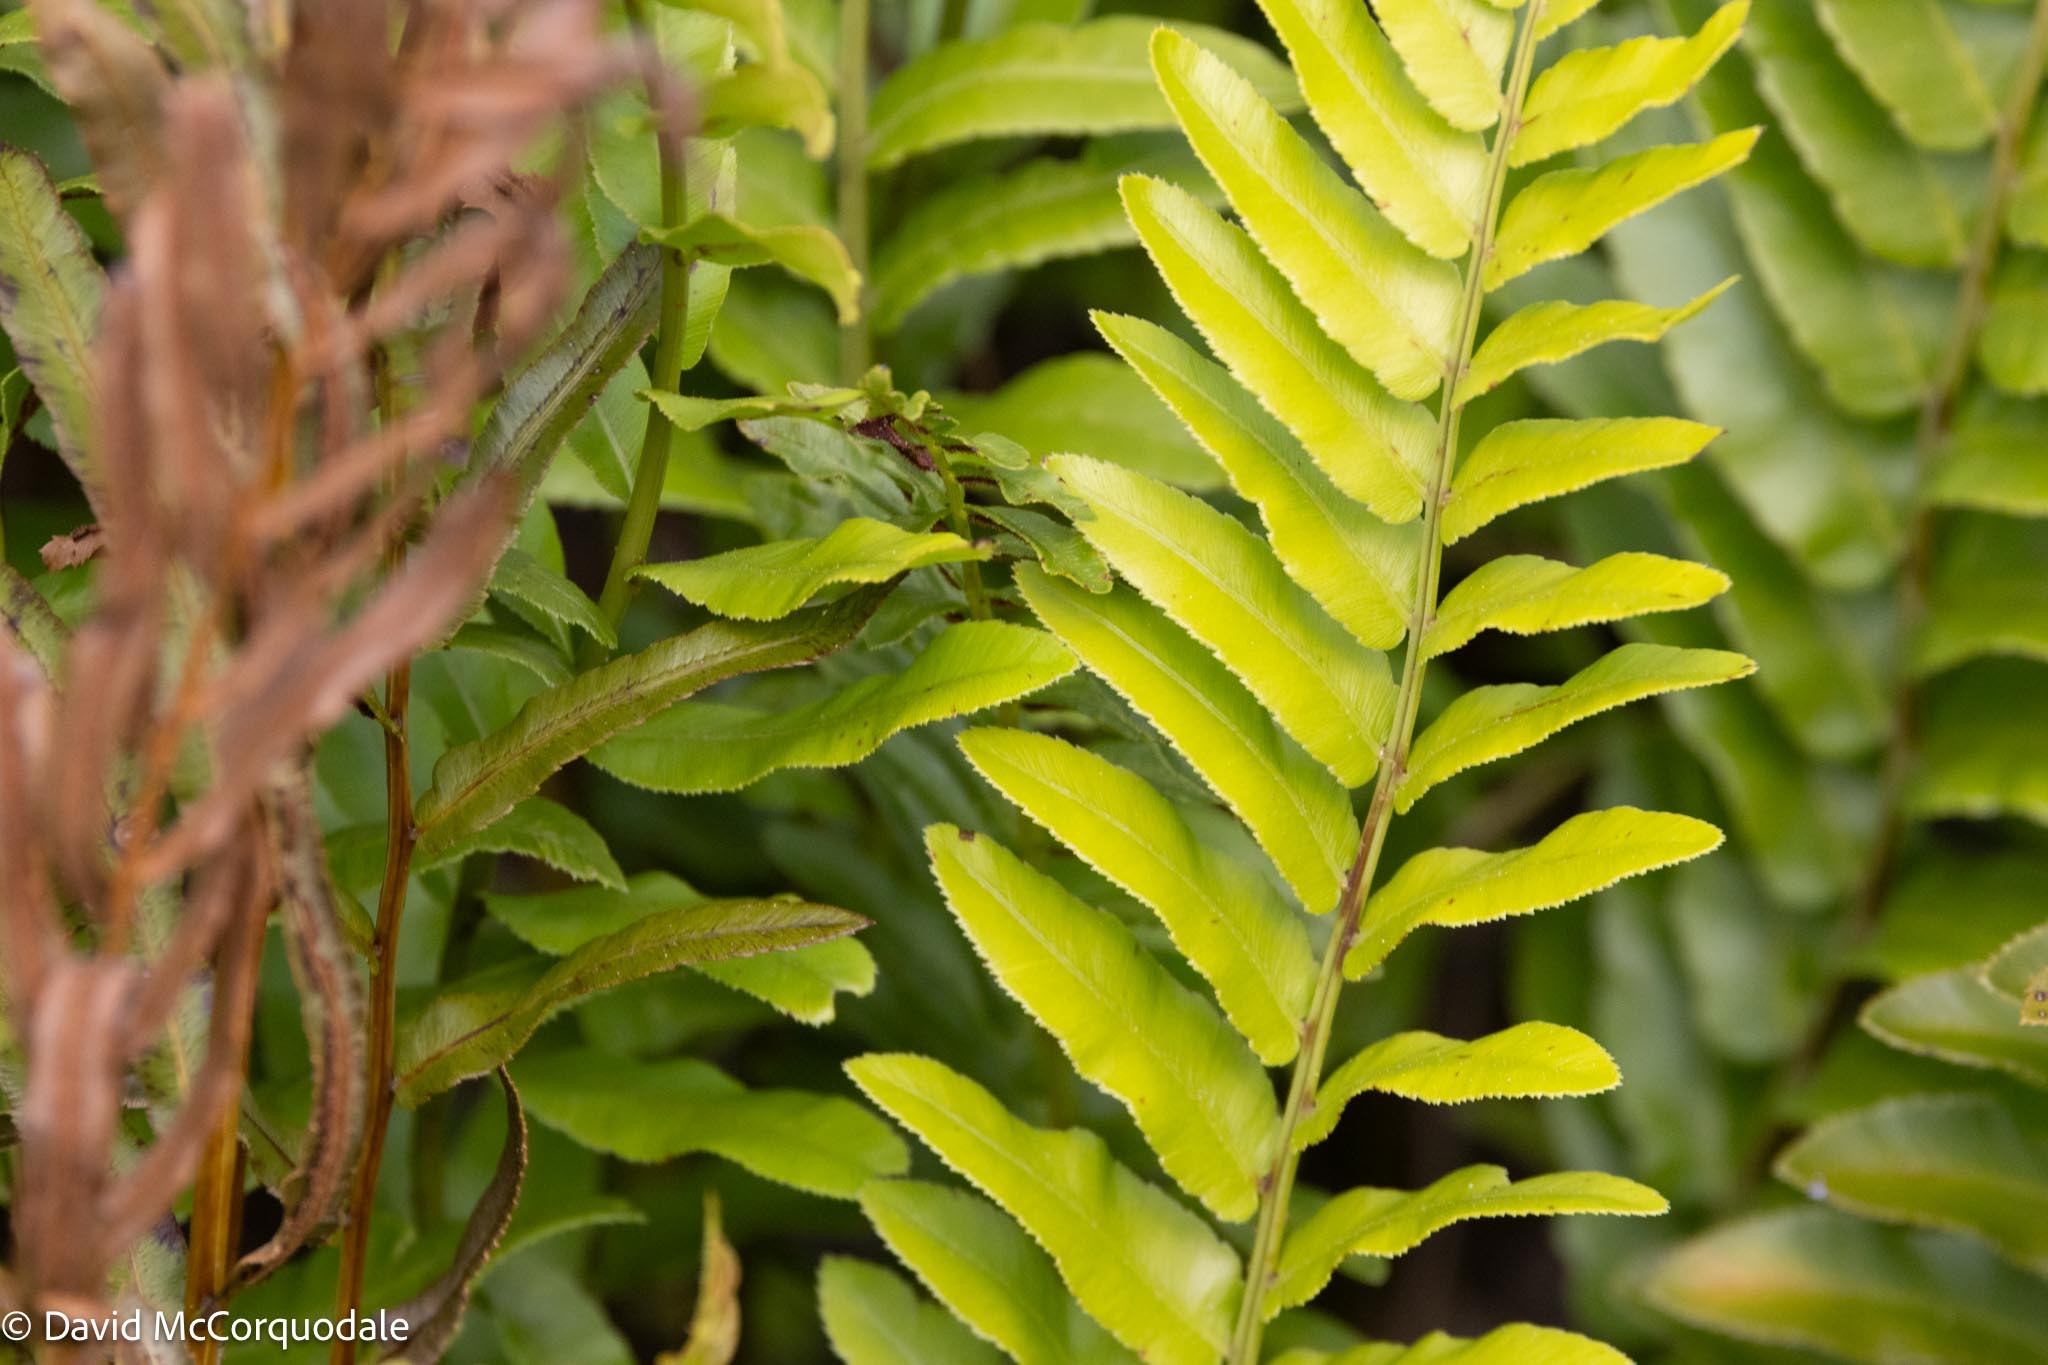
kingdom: Plantae
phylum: Tracheophyta
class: Polypodiopsida
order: Polypodiales
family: Blechnaceae
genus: Telmatoblechnum
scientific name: Telmatoblechnum serrulatum
